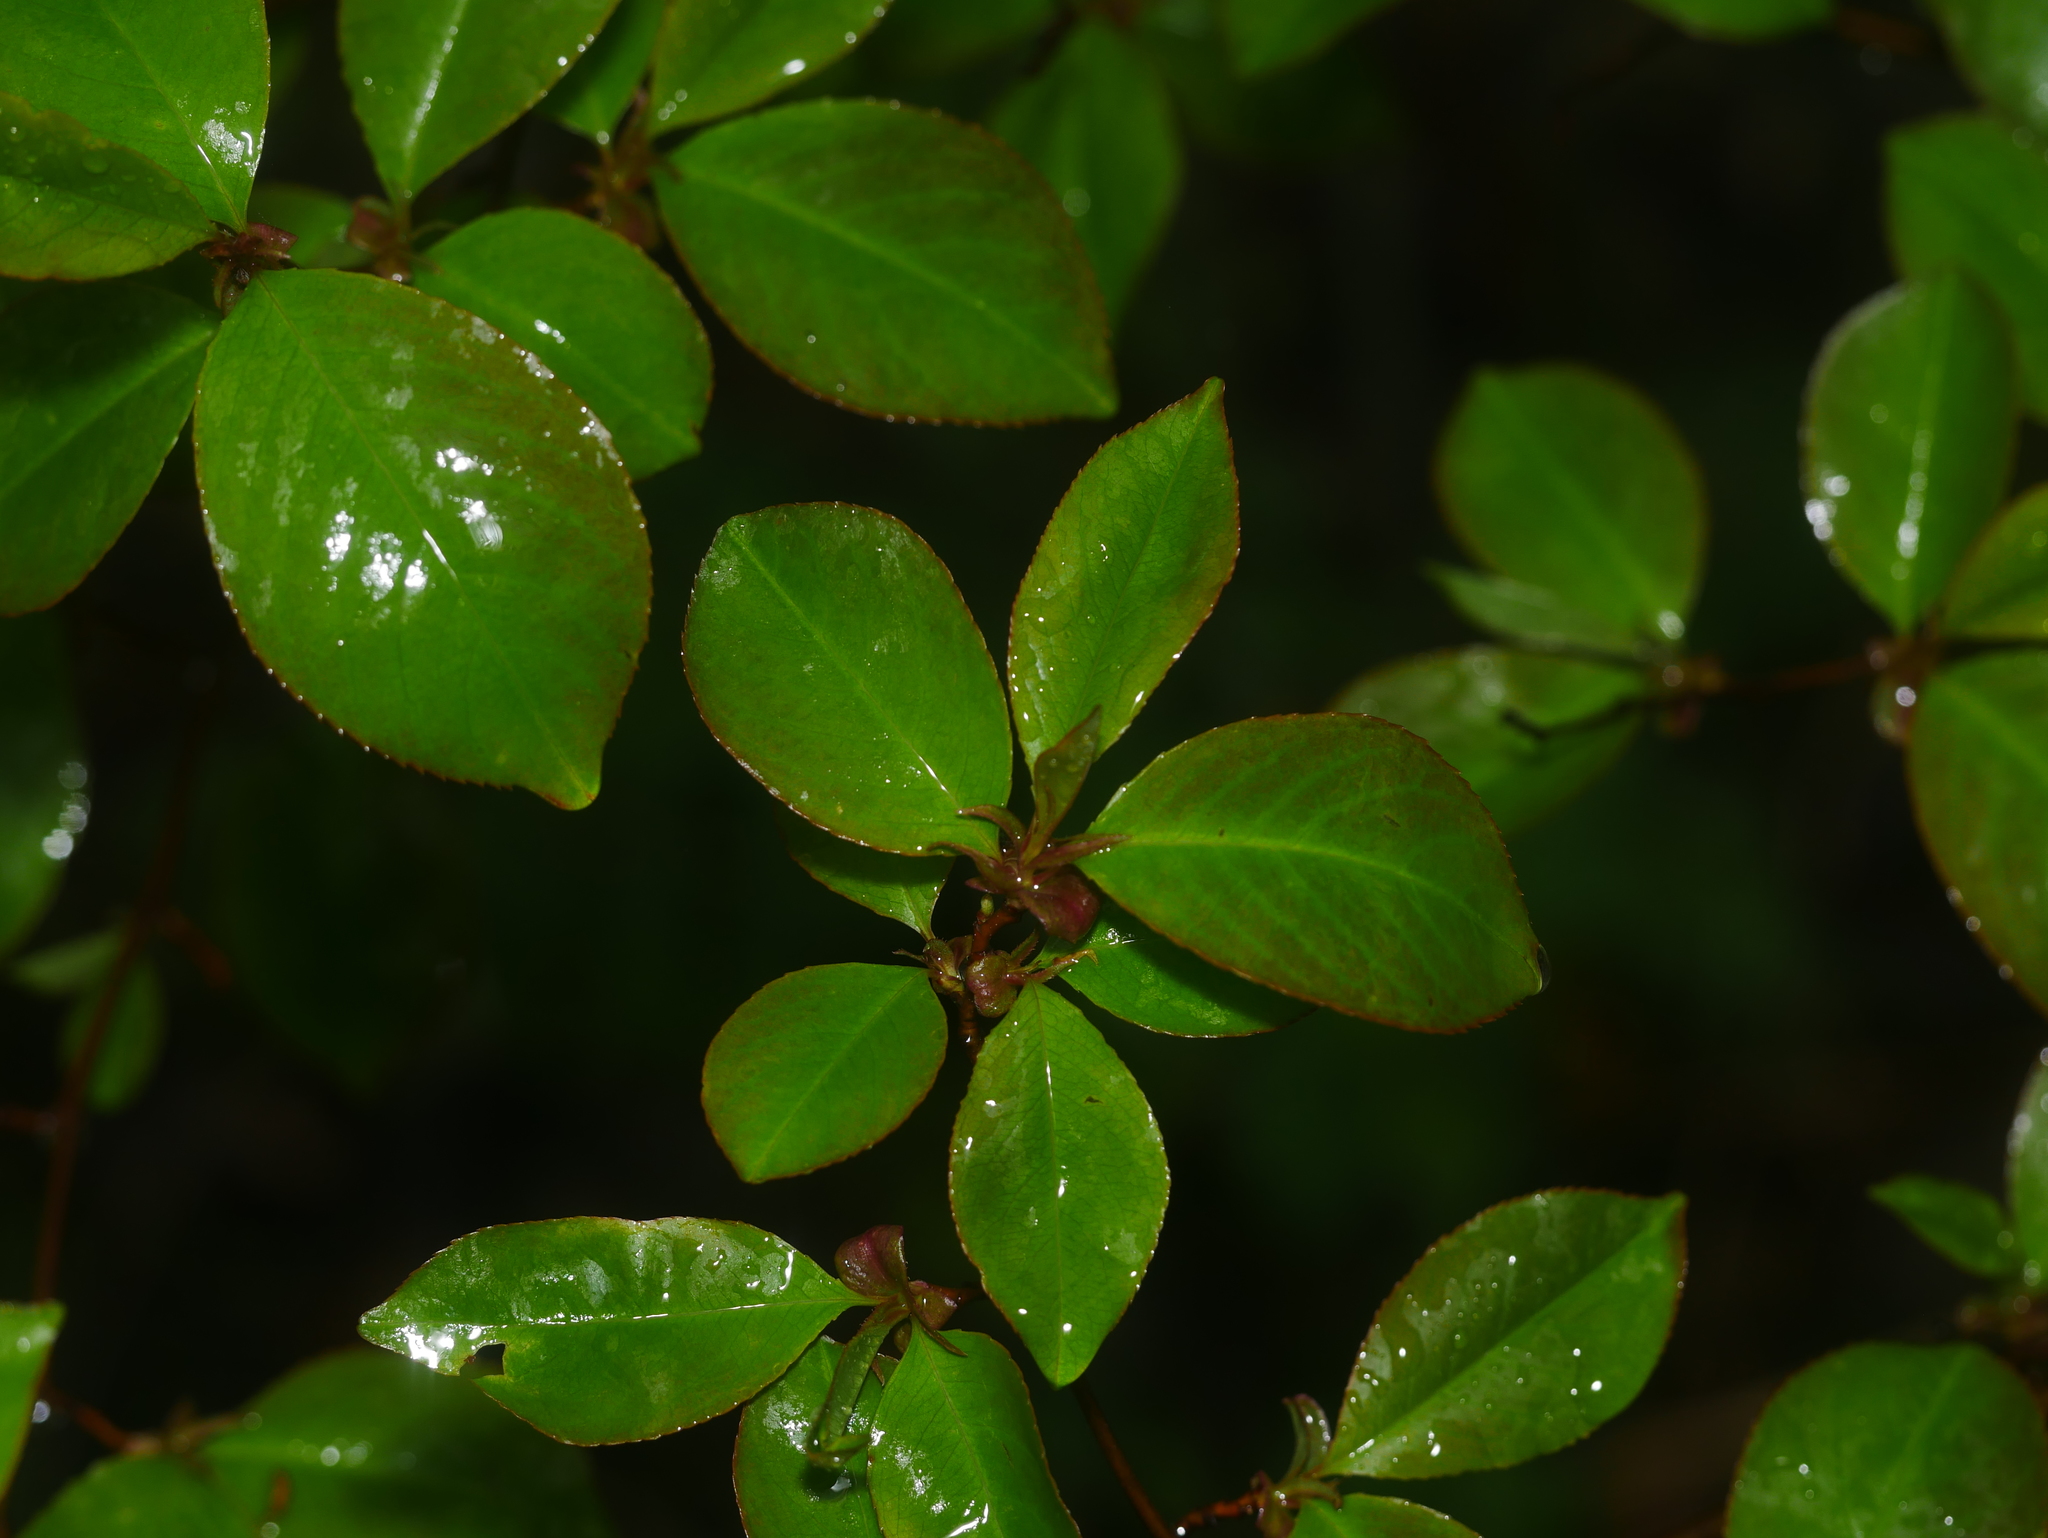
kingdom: Plantae
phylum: Tracheophyta
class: Magnoliopsida
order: Rosales
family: Rosaceae
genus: Prunus
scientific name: Prunus serotina
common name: Black cherry
